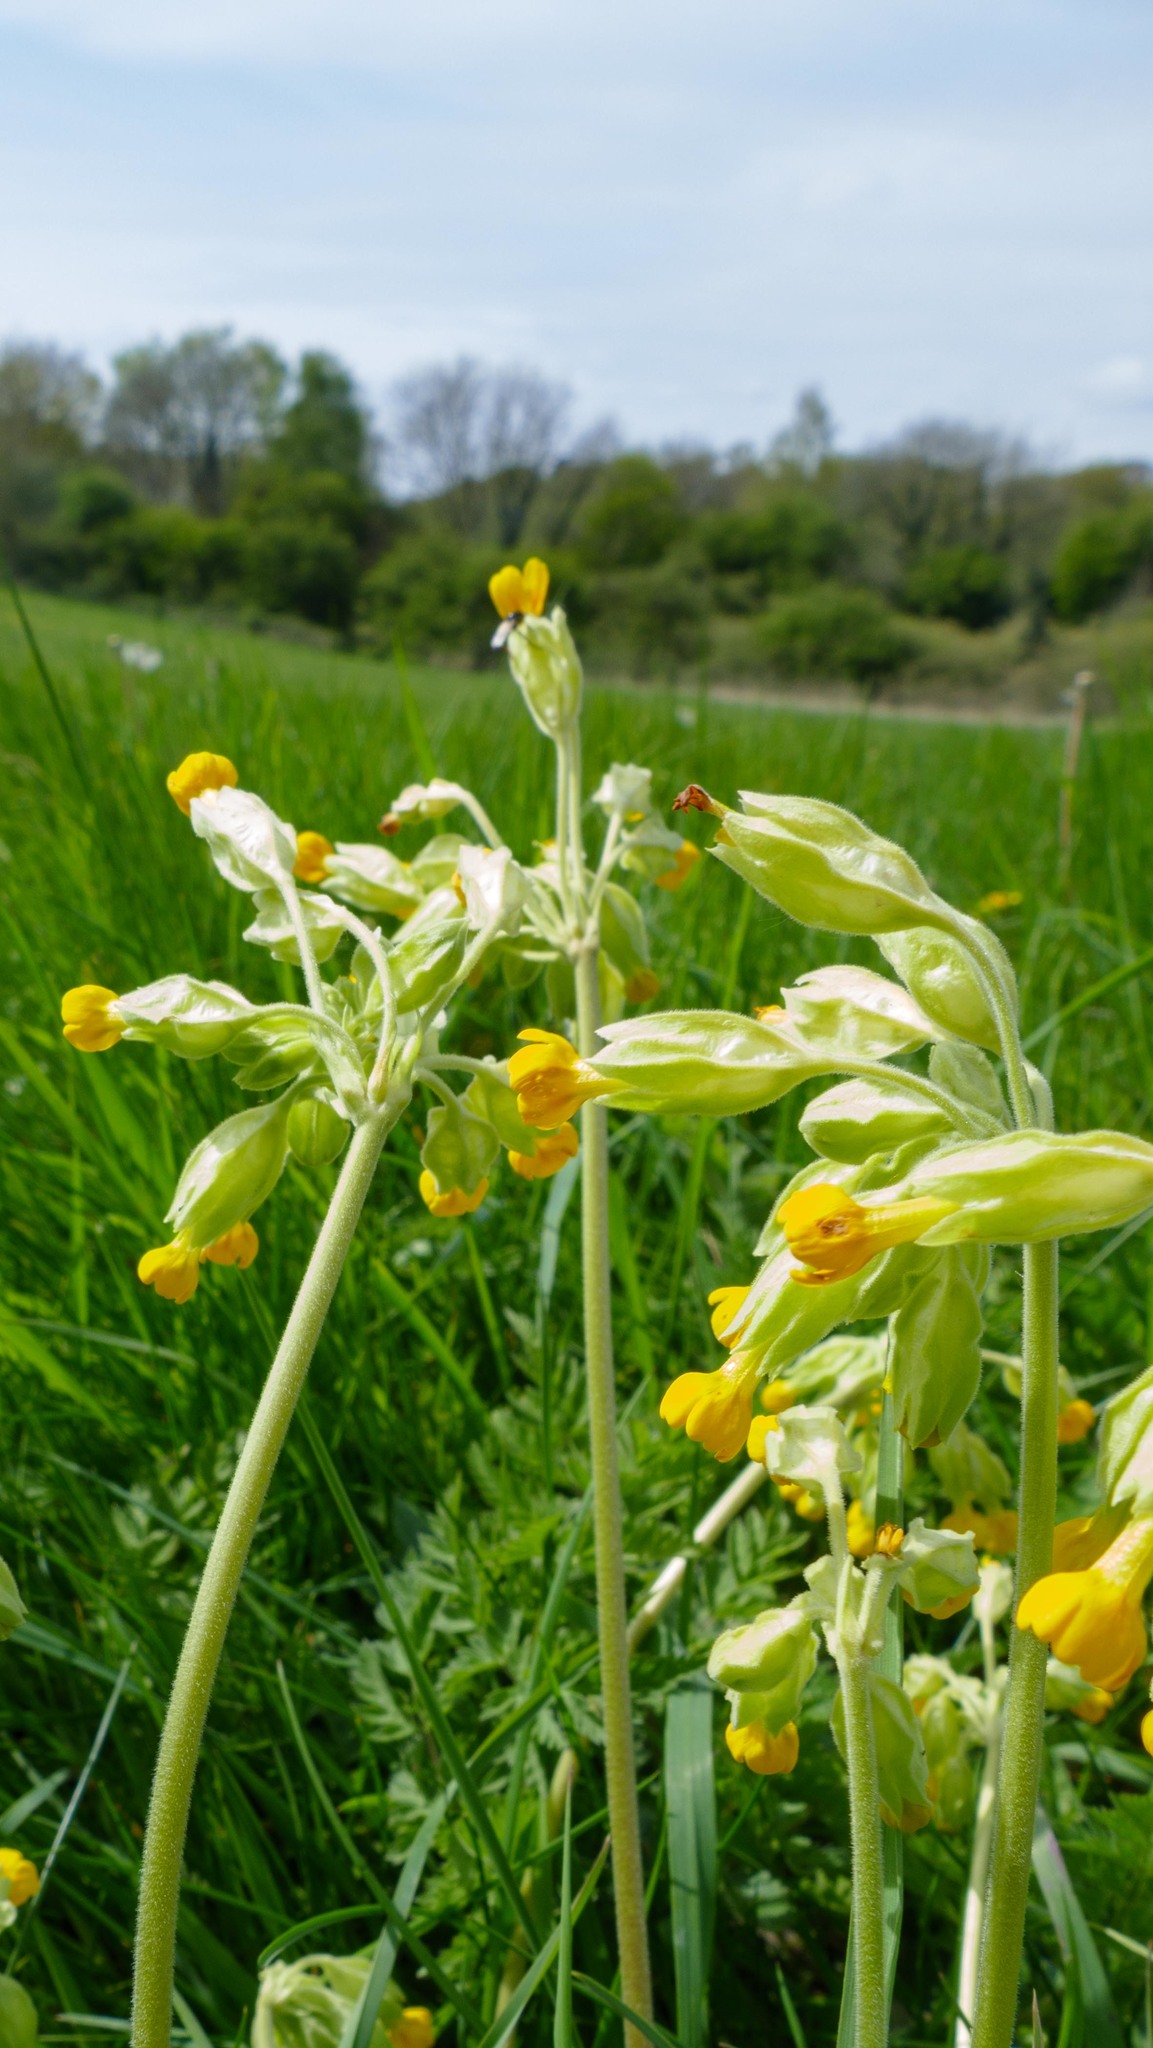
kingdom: Plantae
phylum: Tracheophyta
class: Magnoliopsida
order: Ericales
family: Primulaceae
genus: Primula
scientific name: Primula veris
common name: Cowslip
